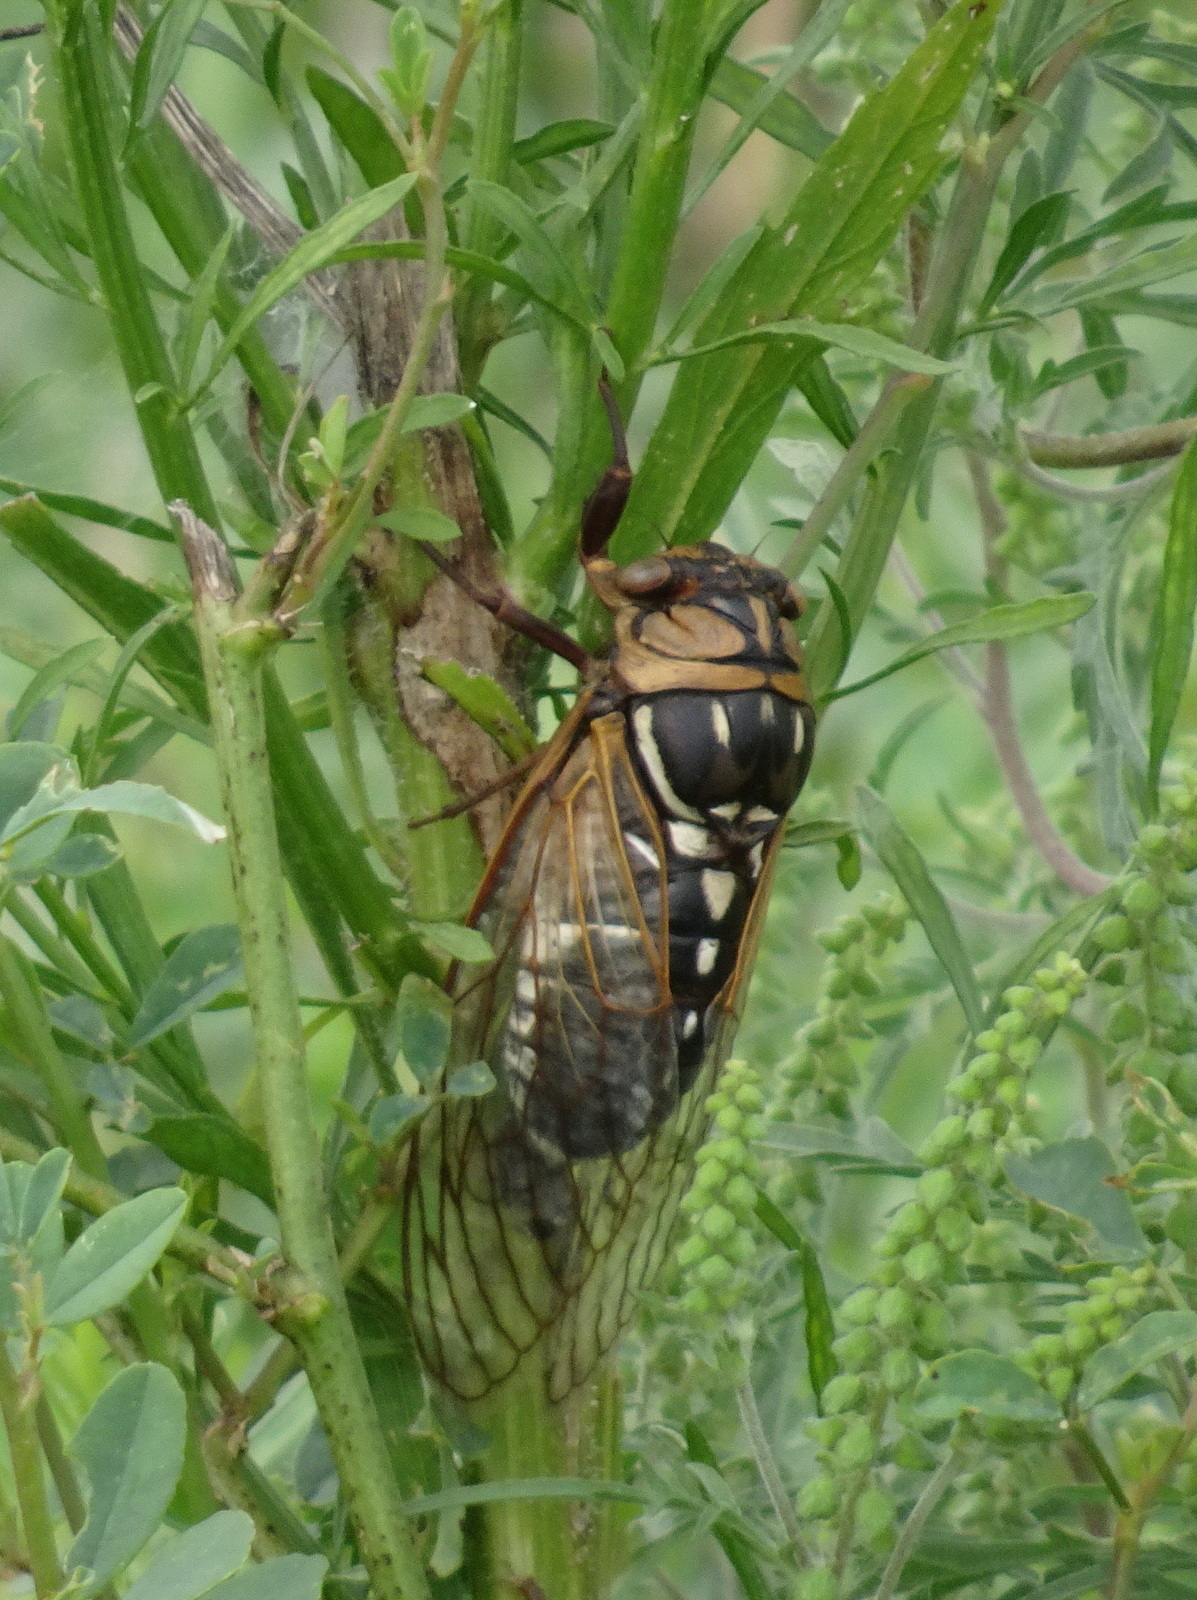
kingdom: Animalia
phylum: Arthropoda
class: Insecta
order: Hemiptera
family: Cicadidae
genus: Megatibicen
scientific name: Megatibicen dorsatus
